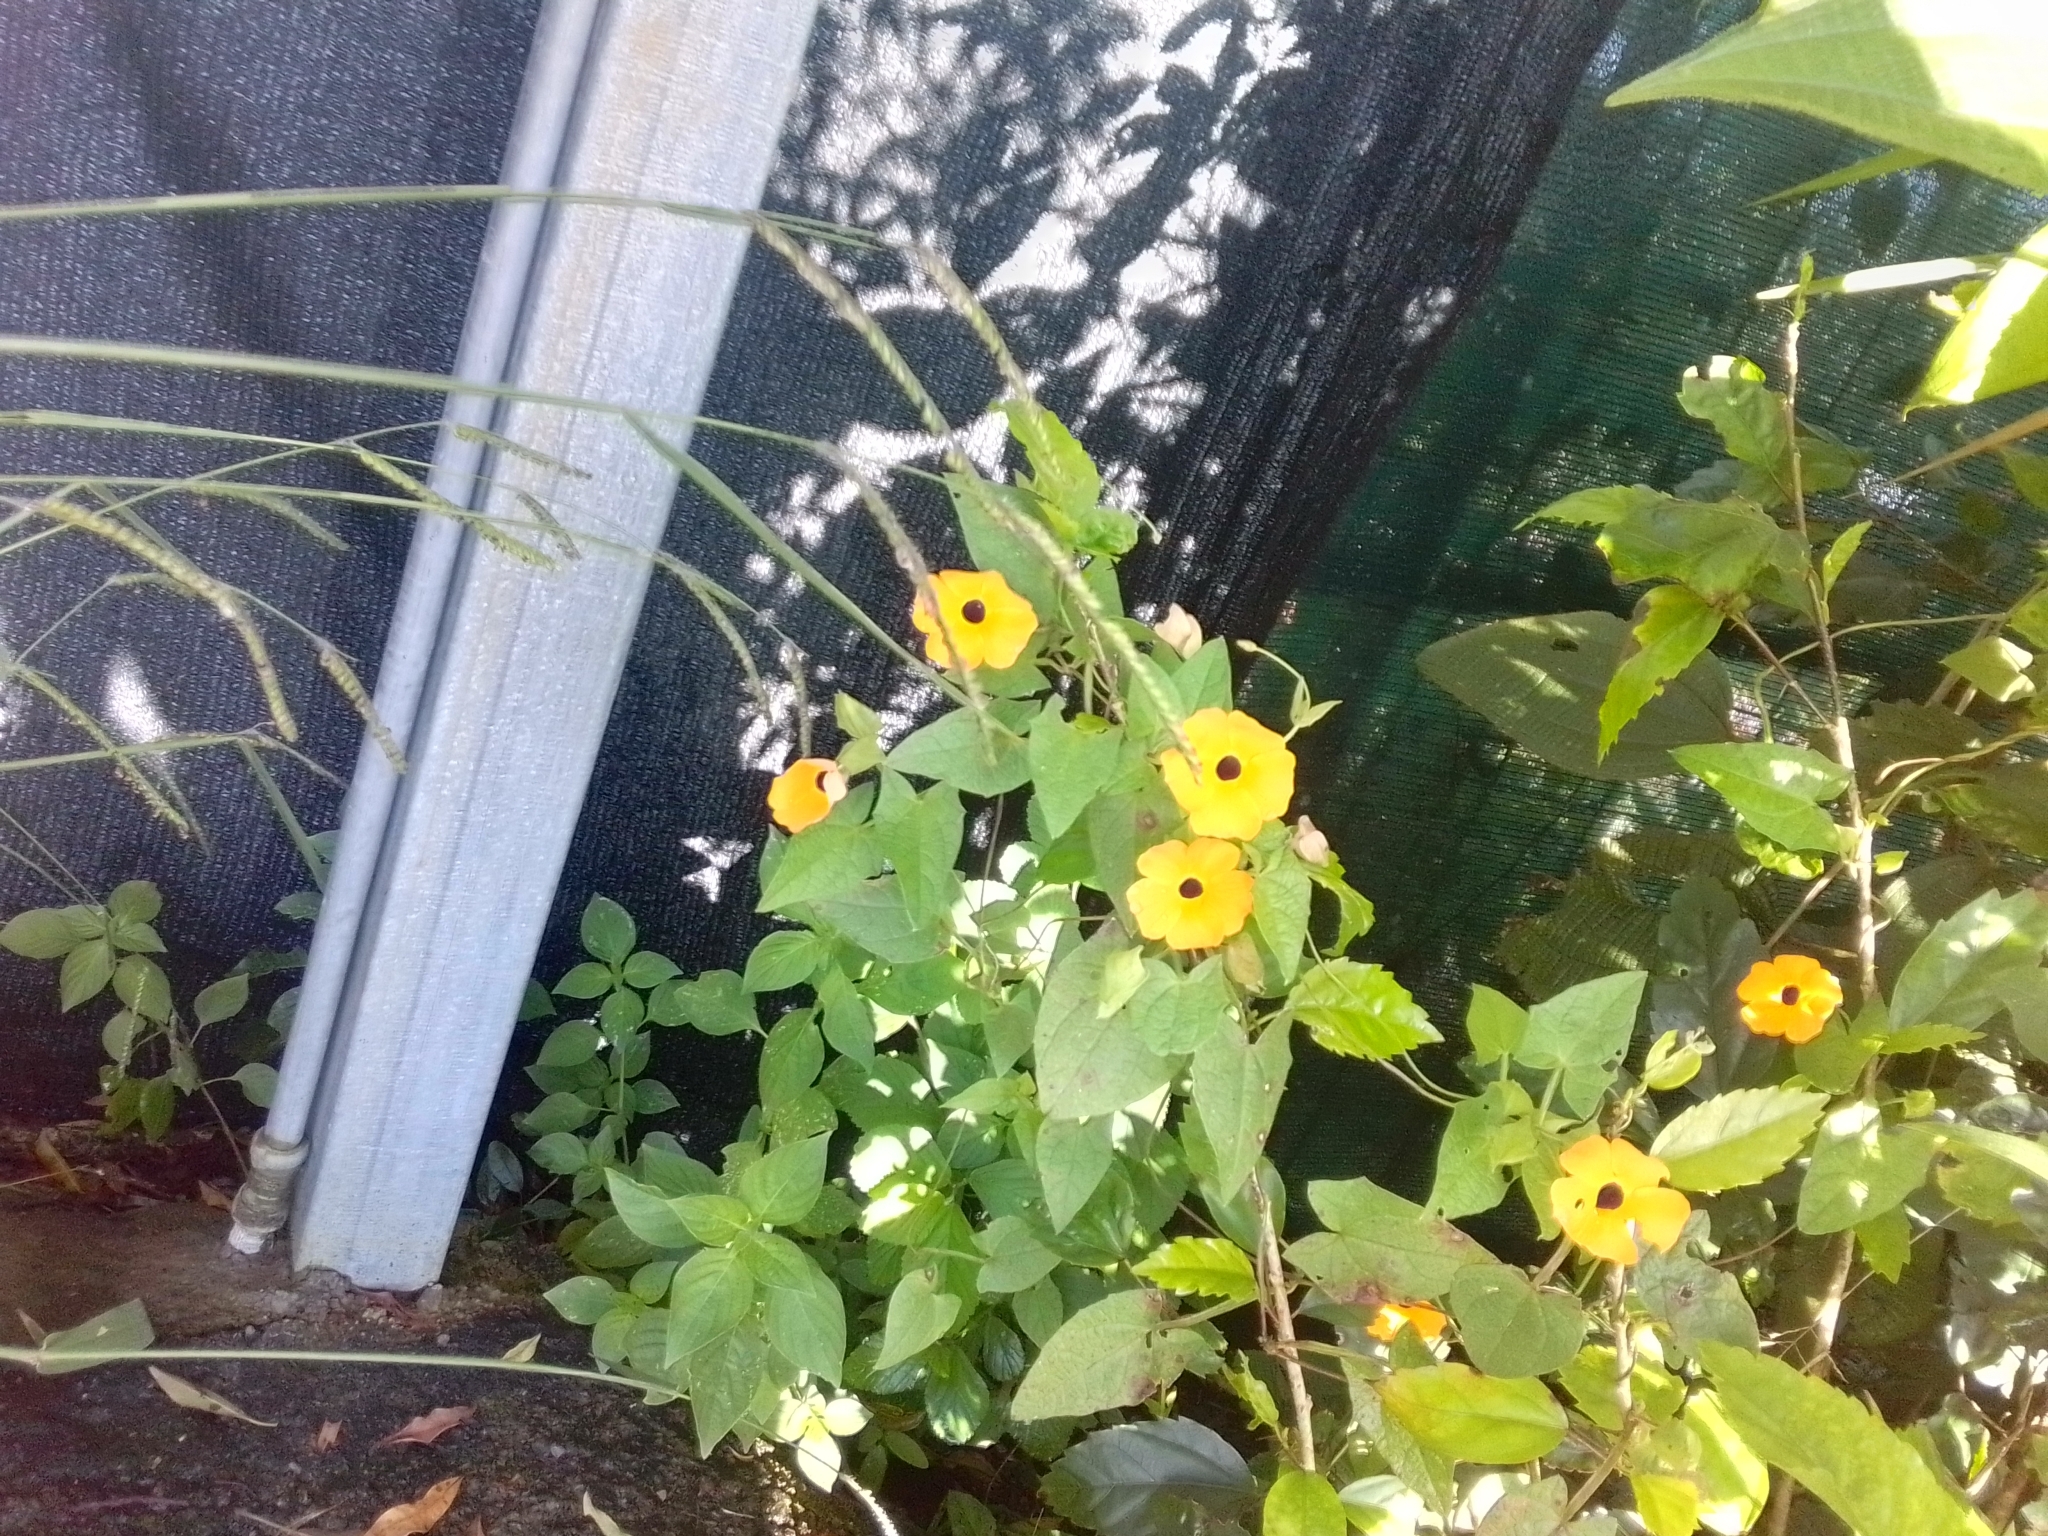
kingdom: Plantae
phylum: Tracheophyta
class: Magnoliopsida
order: Lamiales
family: Acanthaceae
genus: Thunbergia
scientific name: Thunbergia alata
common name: Blackeyed susan vine
